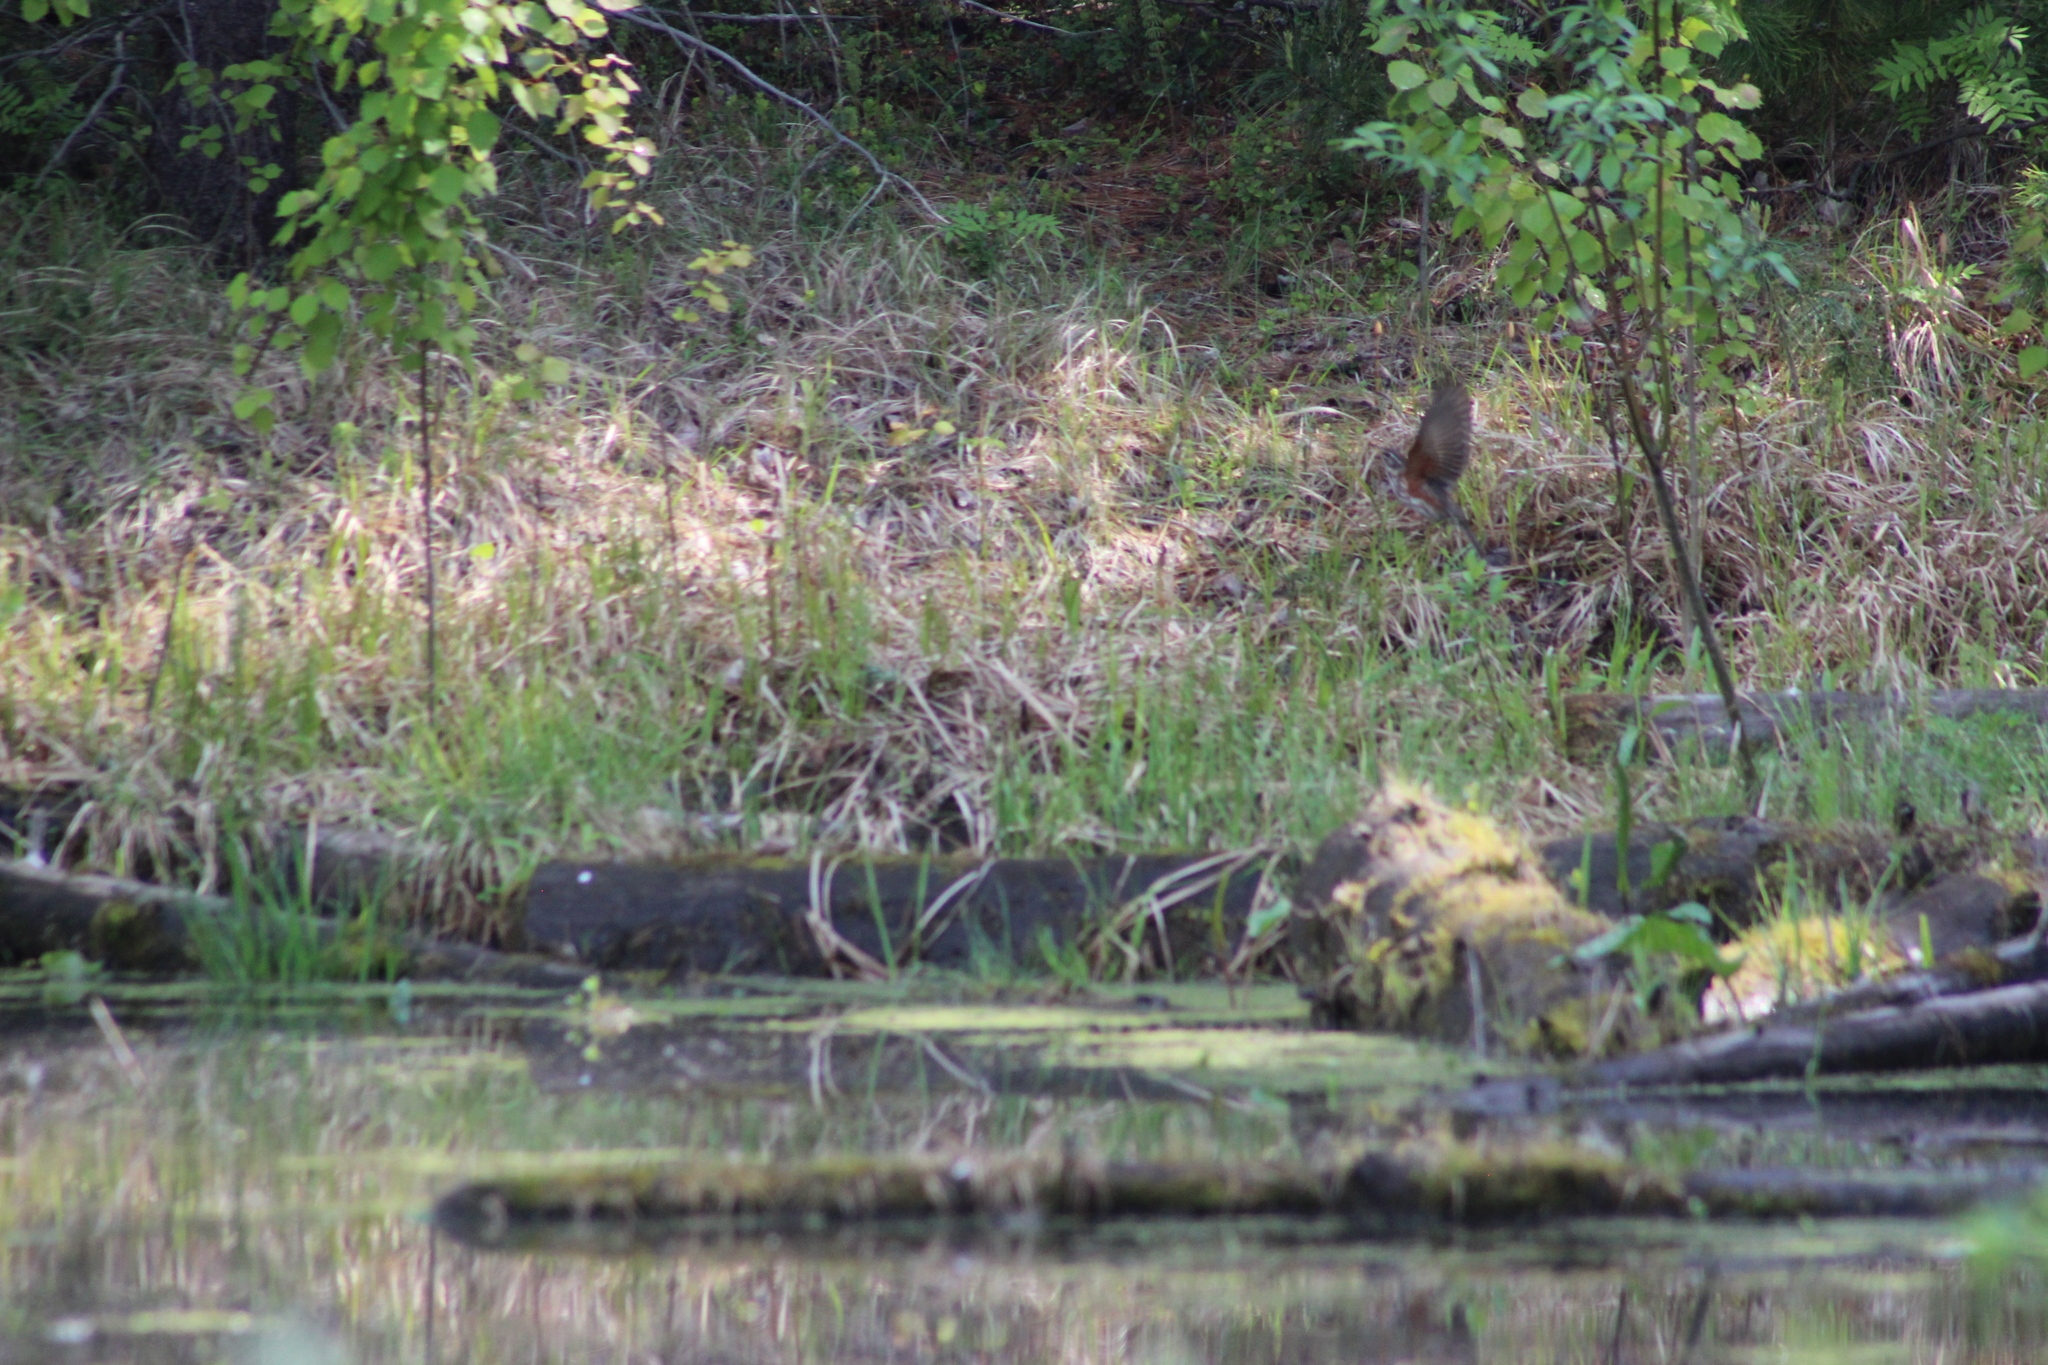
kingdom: Animalia
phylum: Chordata
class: Aves
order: Passeriformes
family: Turdidae
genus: Turdus
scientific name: Turdus iliacus
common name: Redwing
